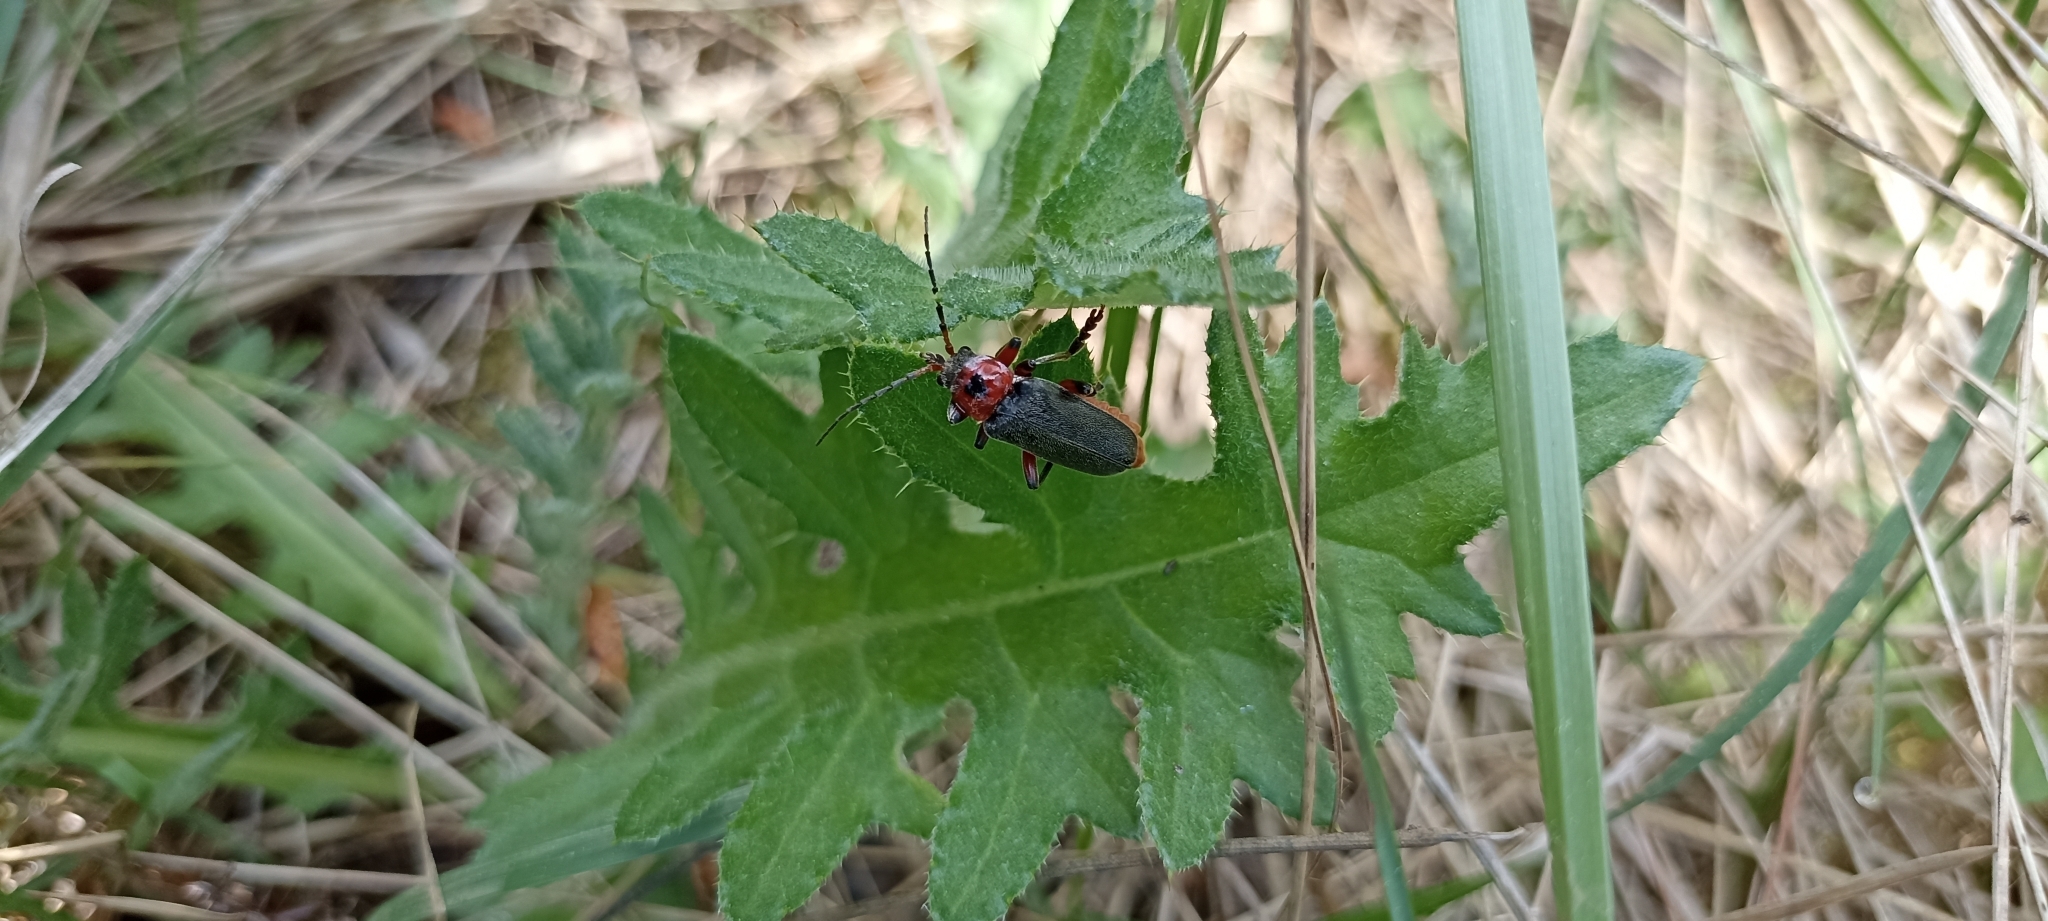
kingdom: Animalia
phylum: Arthropoda
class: Insecta
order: Coleoptera
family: Cantharidae
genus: Cantharis
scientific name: Cantharis rustica
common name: Soldier beetle
